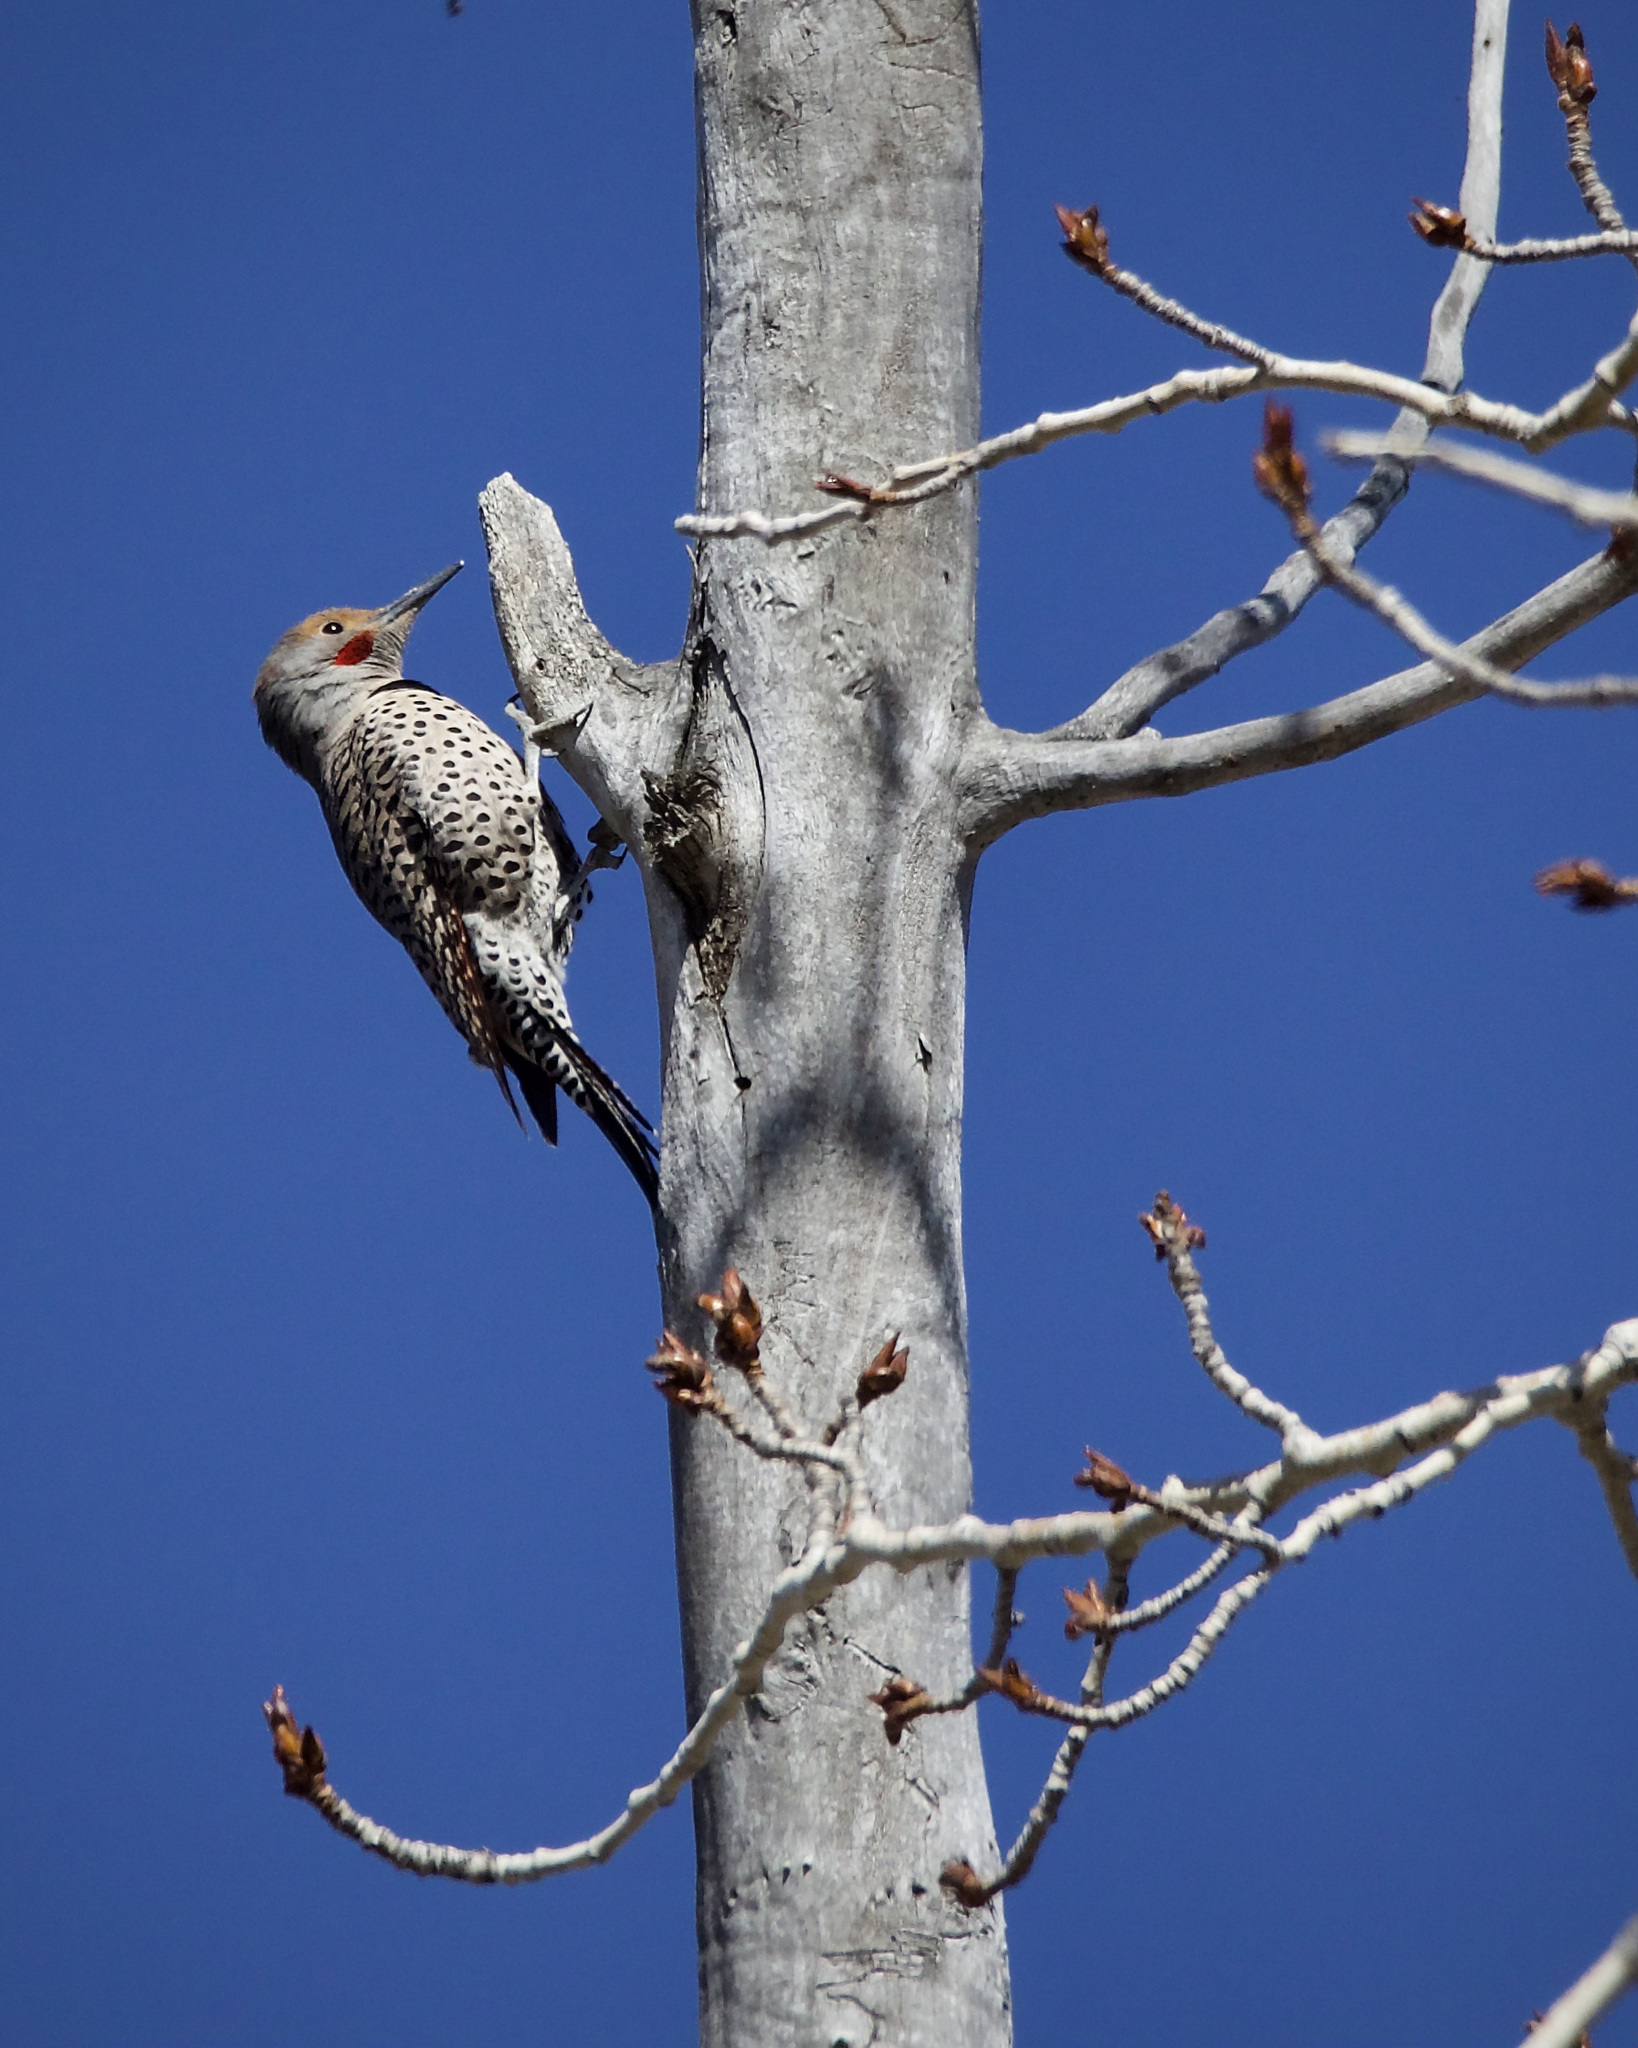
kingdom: Animalia
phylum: Chordata
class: Aves
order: Piciformes
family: Picidae
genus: Colaptes
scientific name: Colaptes auratus
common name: Northern flicker
